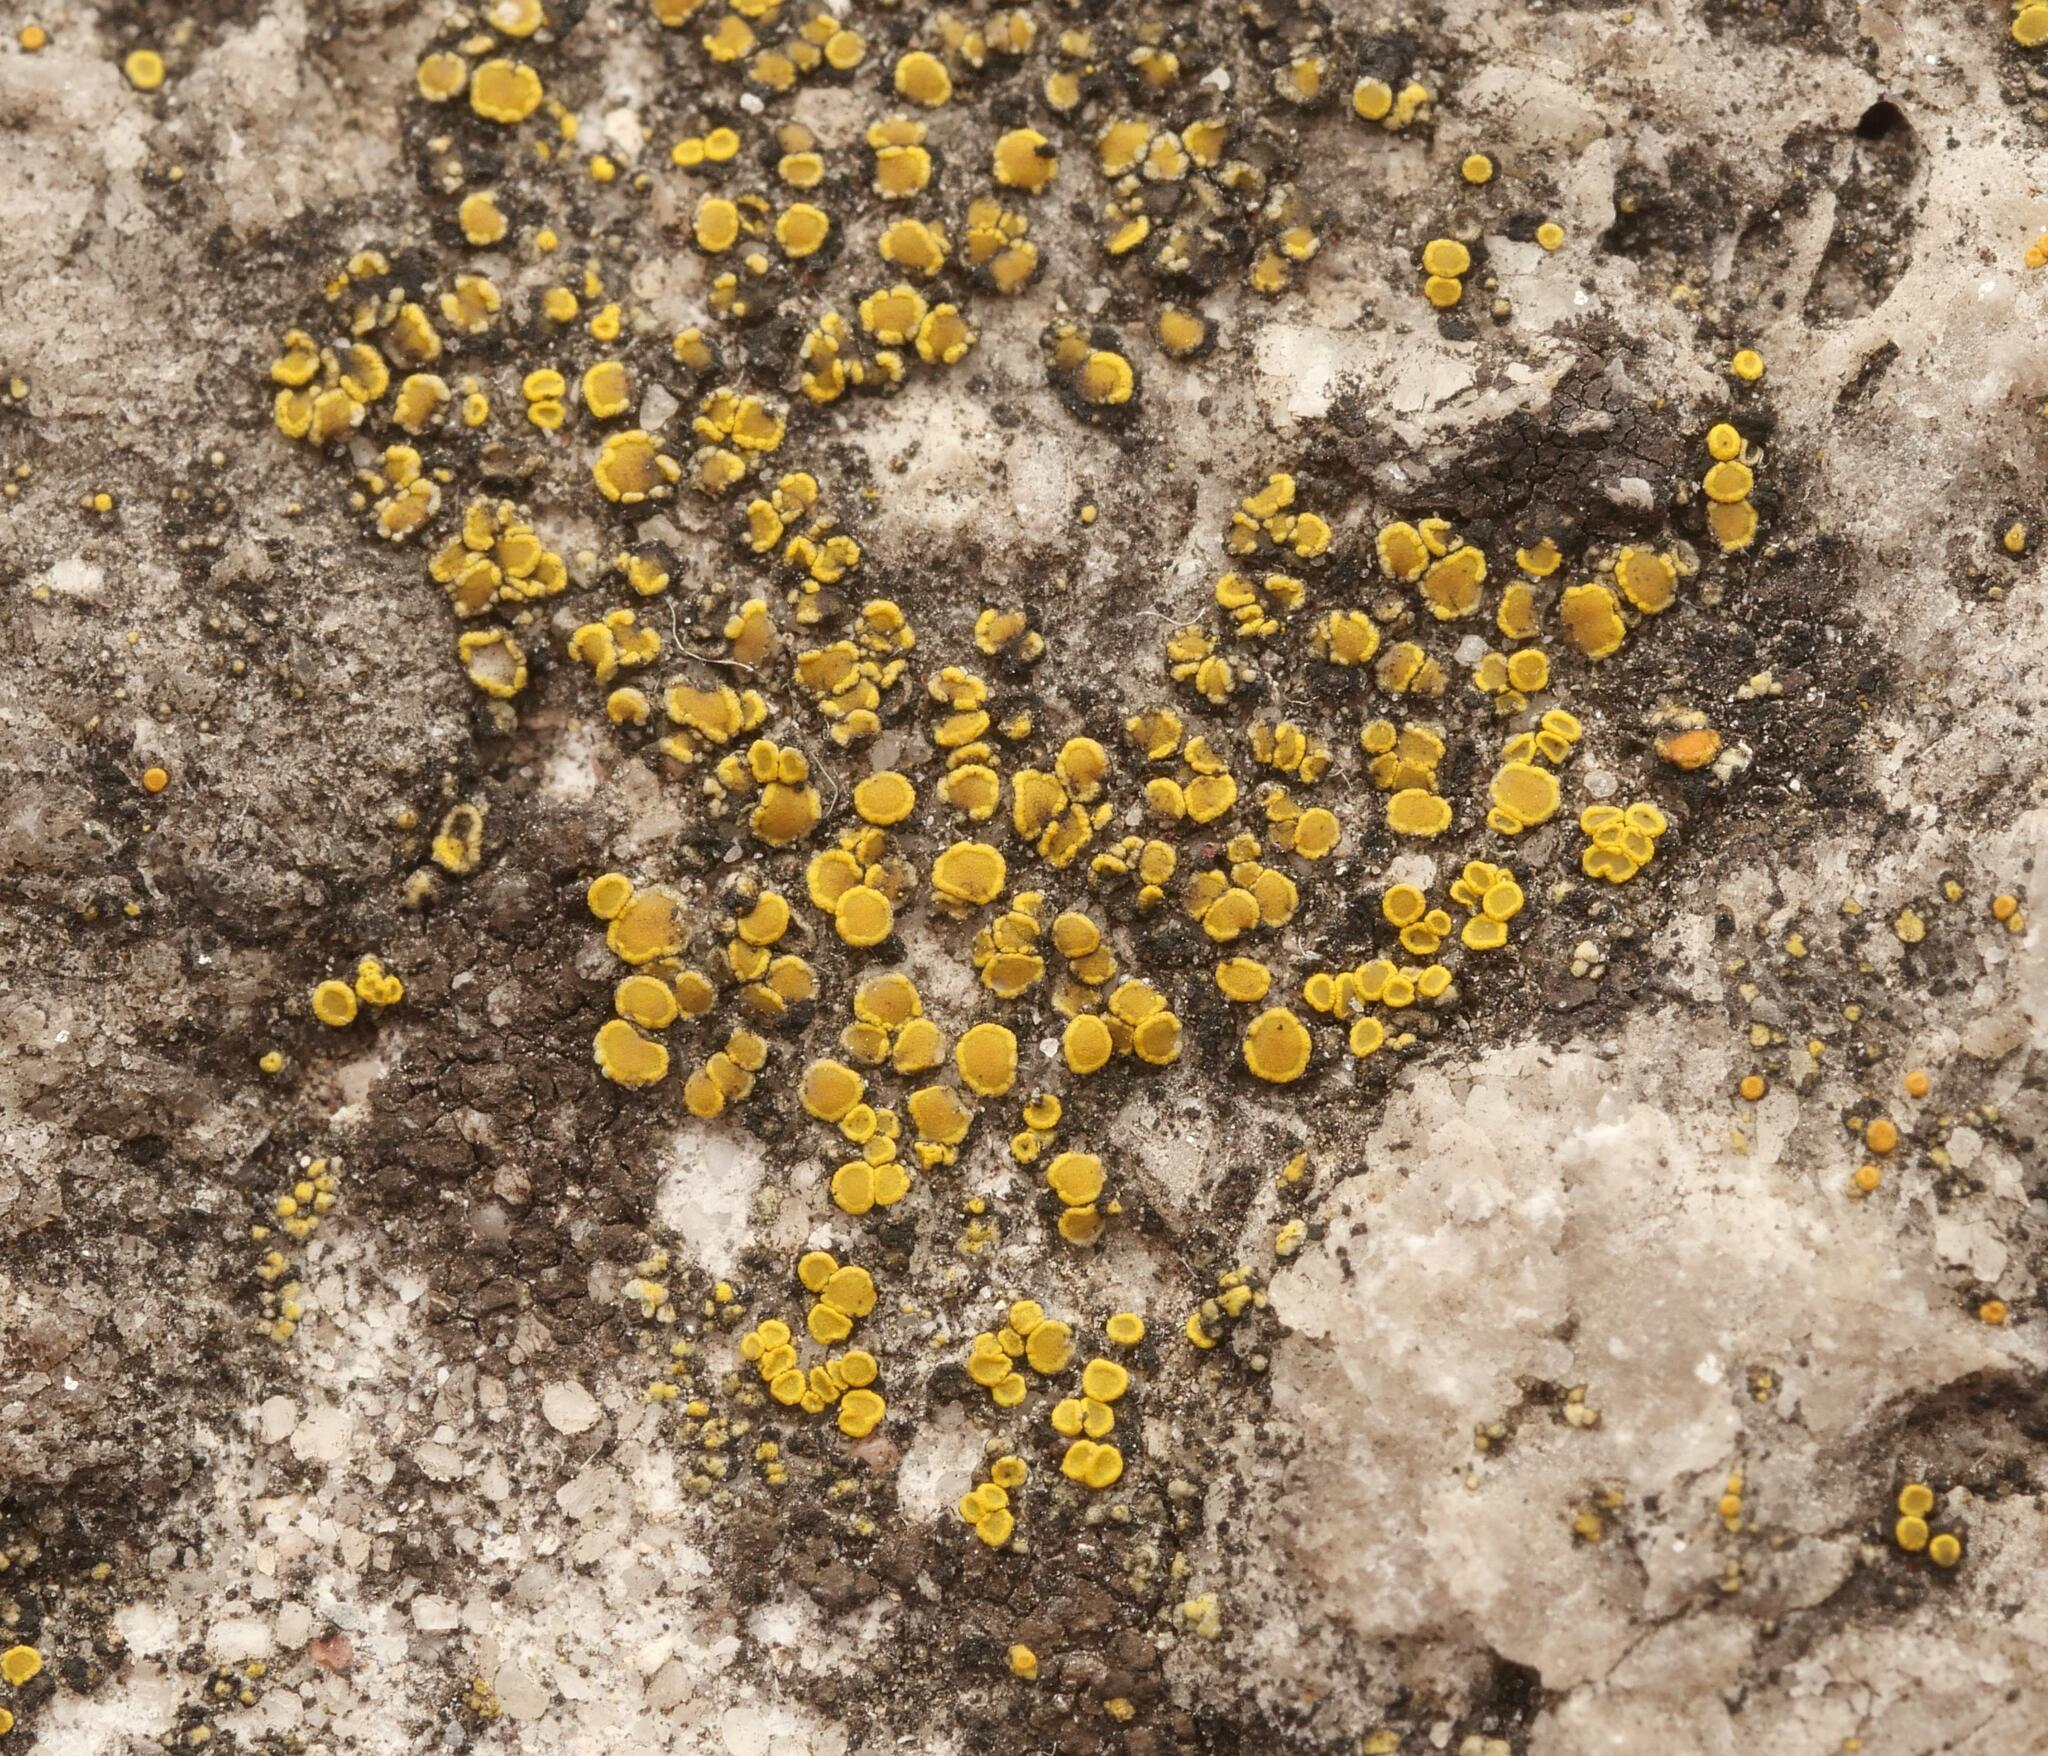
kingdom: Fungi
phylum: Ascomycota
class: Candelariomycetes
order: Candelariales
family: Candelariaceae
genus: Candelariella
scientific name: Candelariella aurella
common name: Hidden goldspeck lichen
